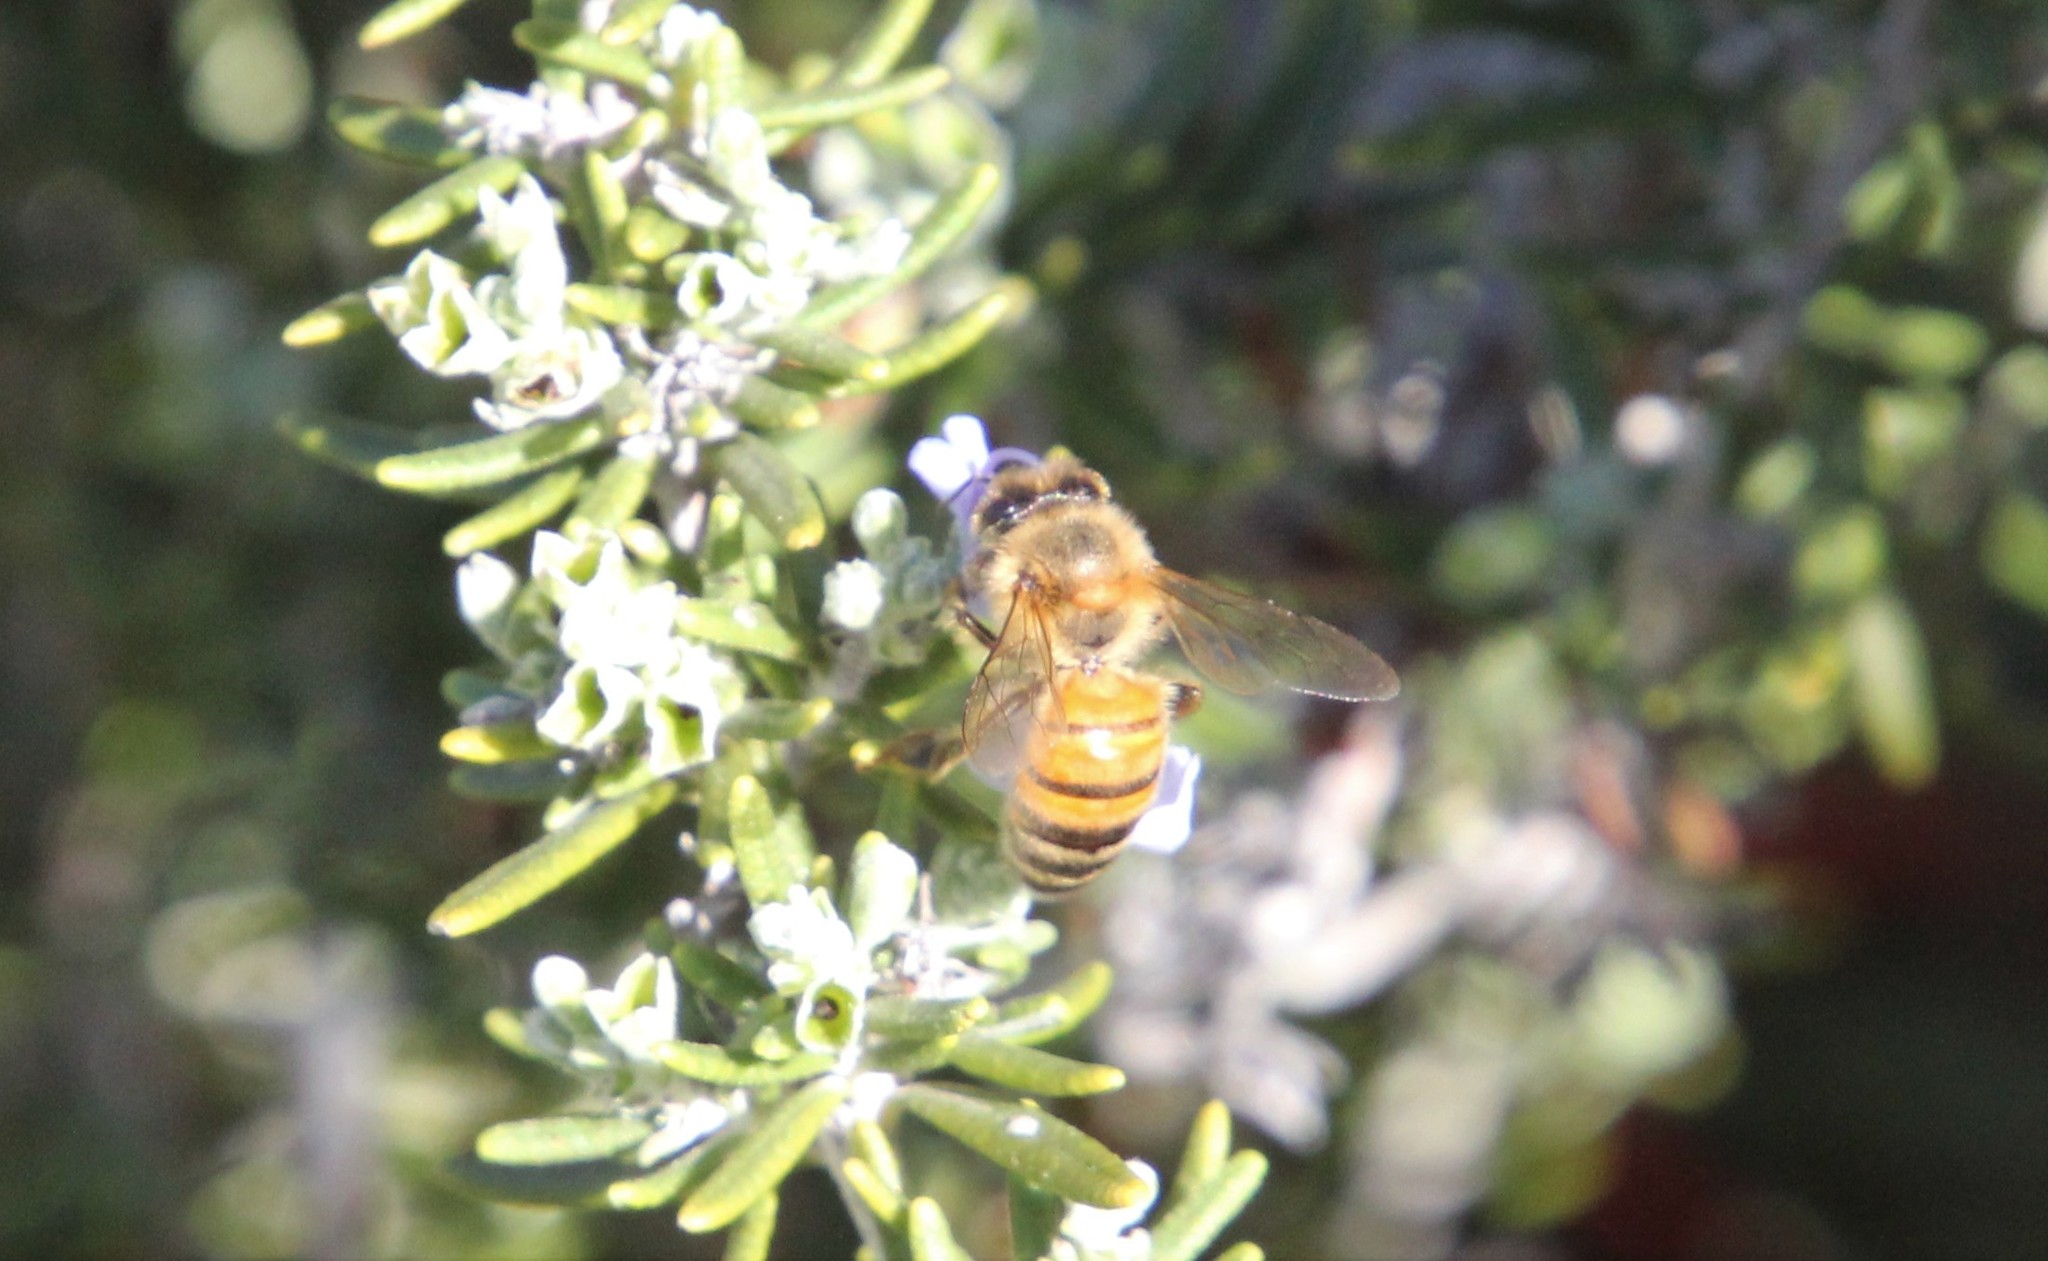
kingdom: Animalia
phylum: Arthropoda
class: Insecta
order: Hymenoptera
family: Apidae
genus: Apis
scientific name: Apis mellifera
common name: Honey bee
